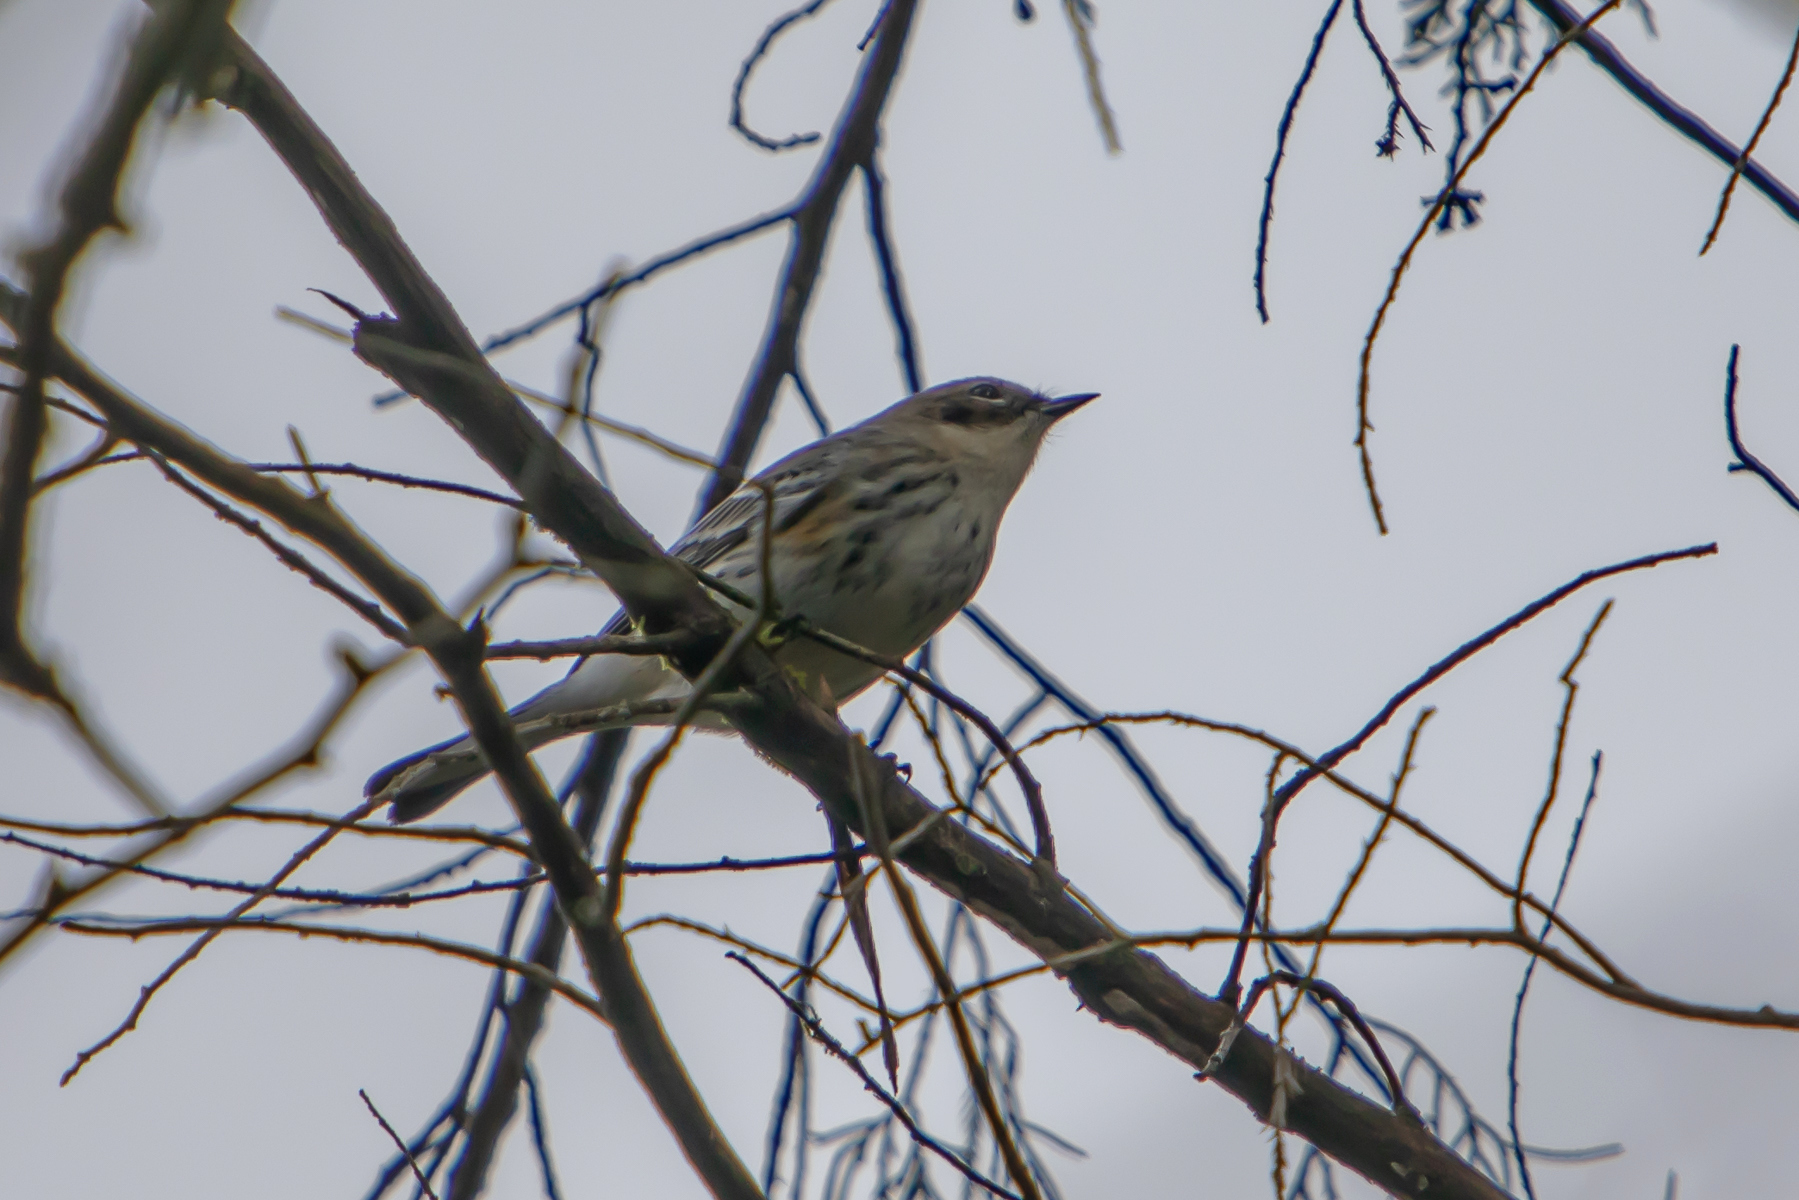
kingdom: Animalia
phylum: Chordata
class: Aves
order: Passeriformes
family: Parulidae
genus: Setophaga
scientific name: Setophaga coronata
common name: Myrtle warbler
